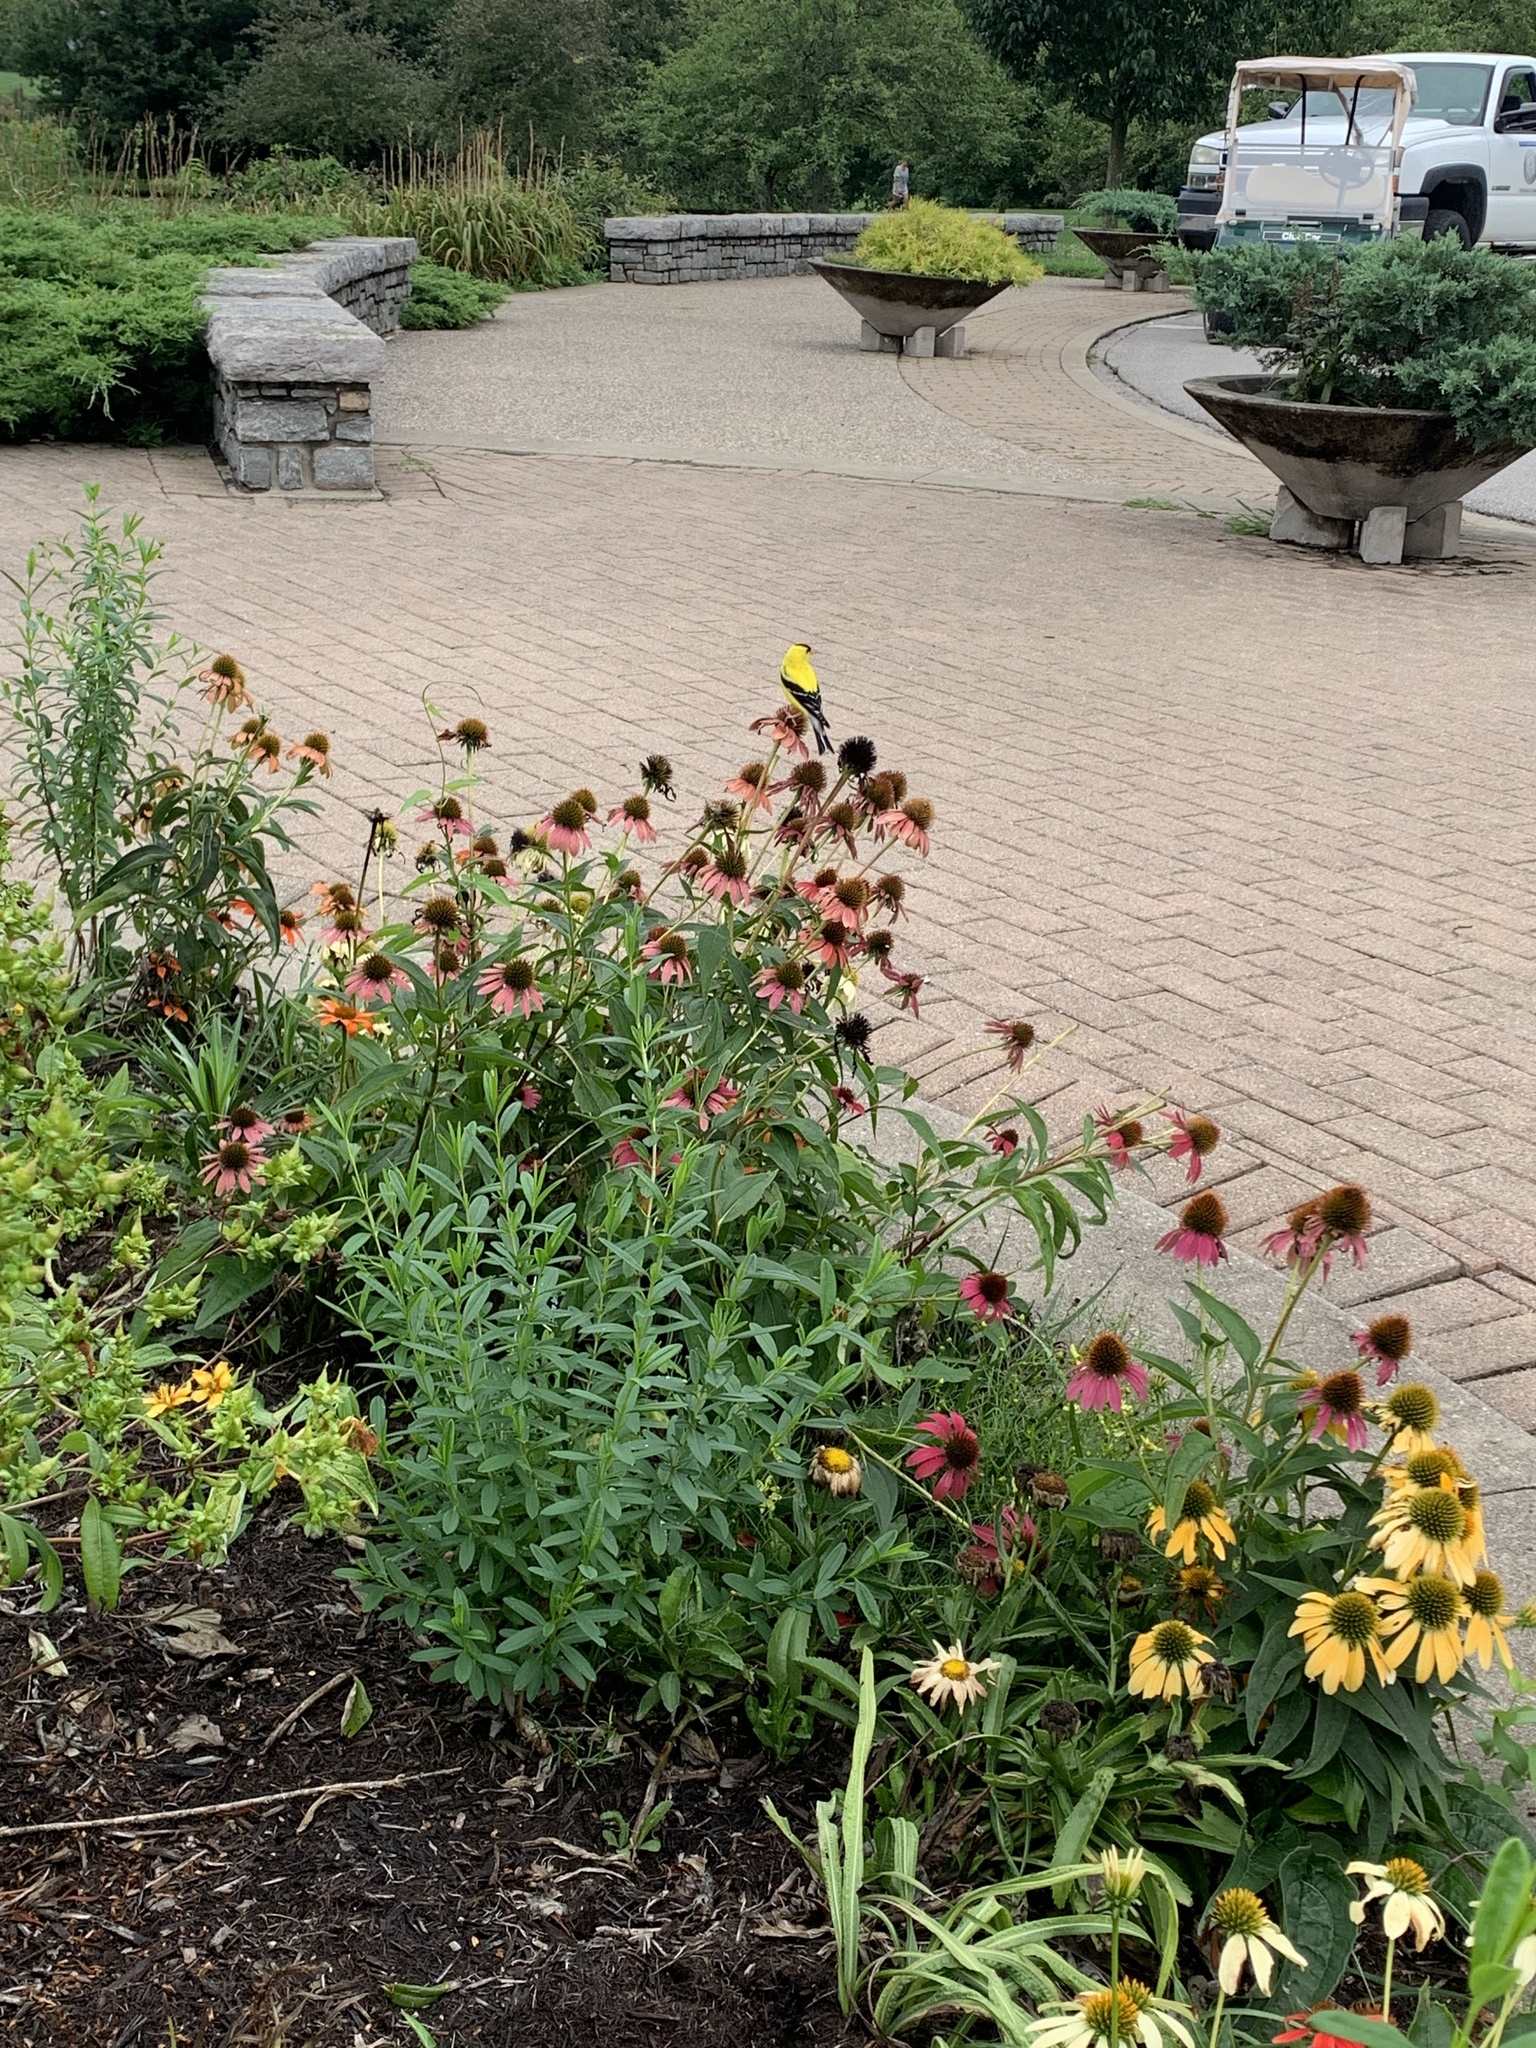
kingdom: Animalia
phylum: Chordata
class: Aves
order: Passeriformes
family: Fringillidae
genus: Spinus
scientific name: Spinus tristis
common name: American goldfinch
